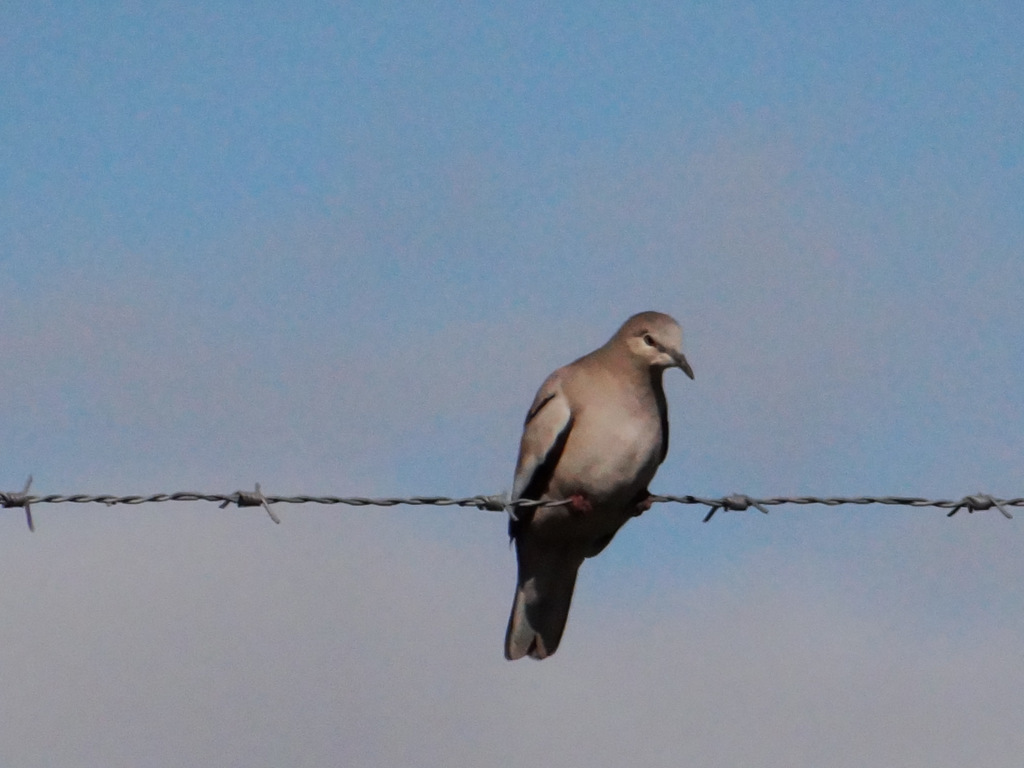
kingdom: Animalia
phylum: Chordata
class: Aves
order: Columbiformes
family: Columbidae
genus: Columbina
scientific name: Columbina picui
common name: Picui ground dove
